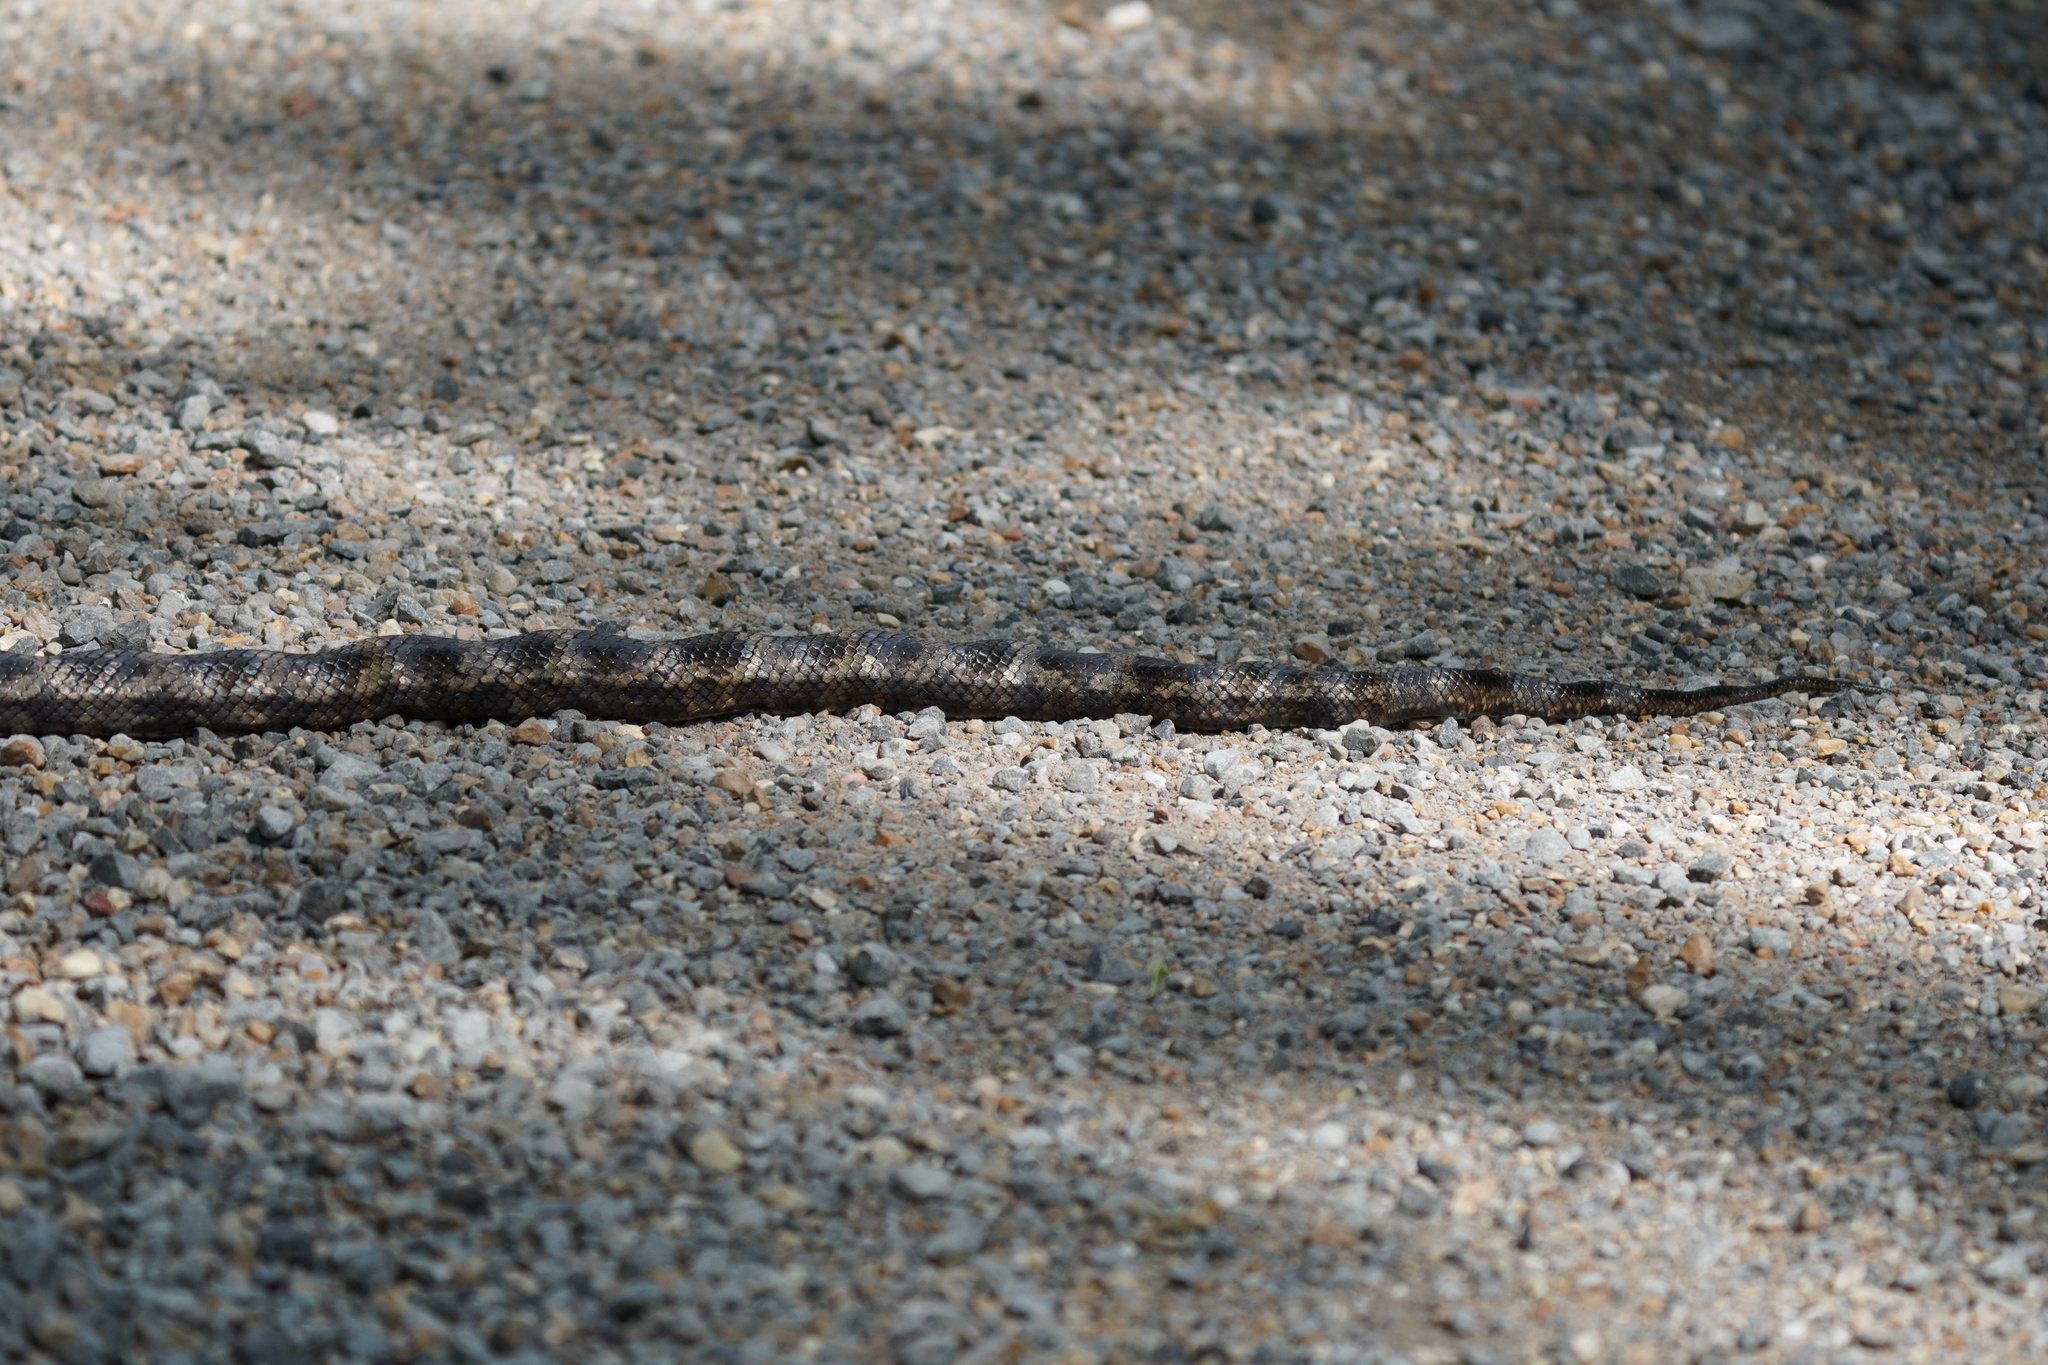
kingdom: Animalia
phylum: Chordata
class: Squamata
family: Colubridae
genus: Pantherophis
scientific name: Pantherophis spiloides
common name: Gray rat snake
